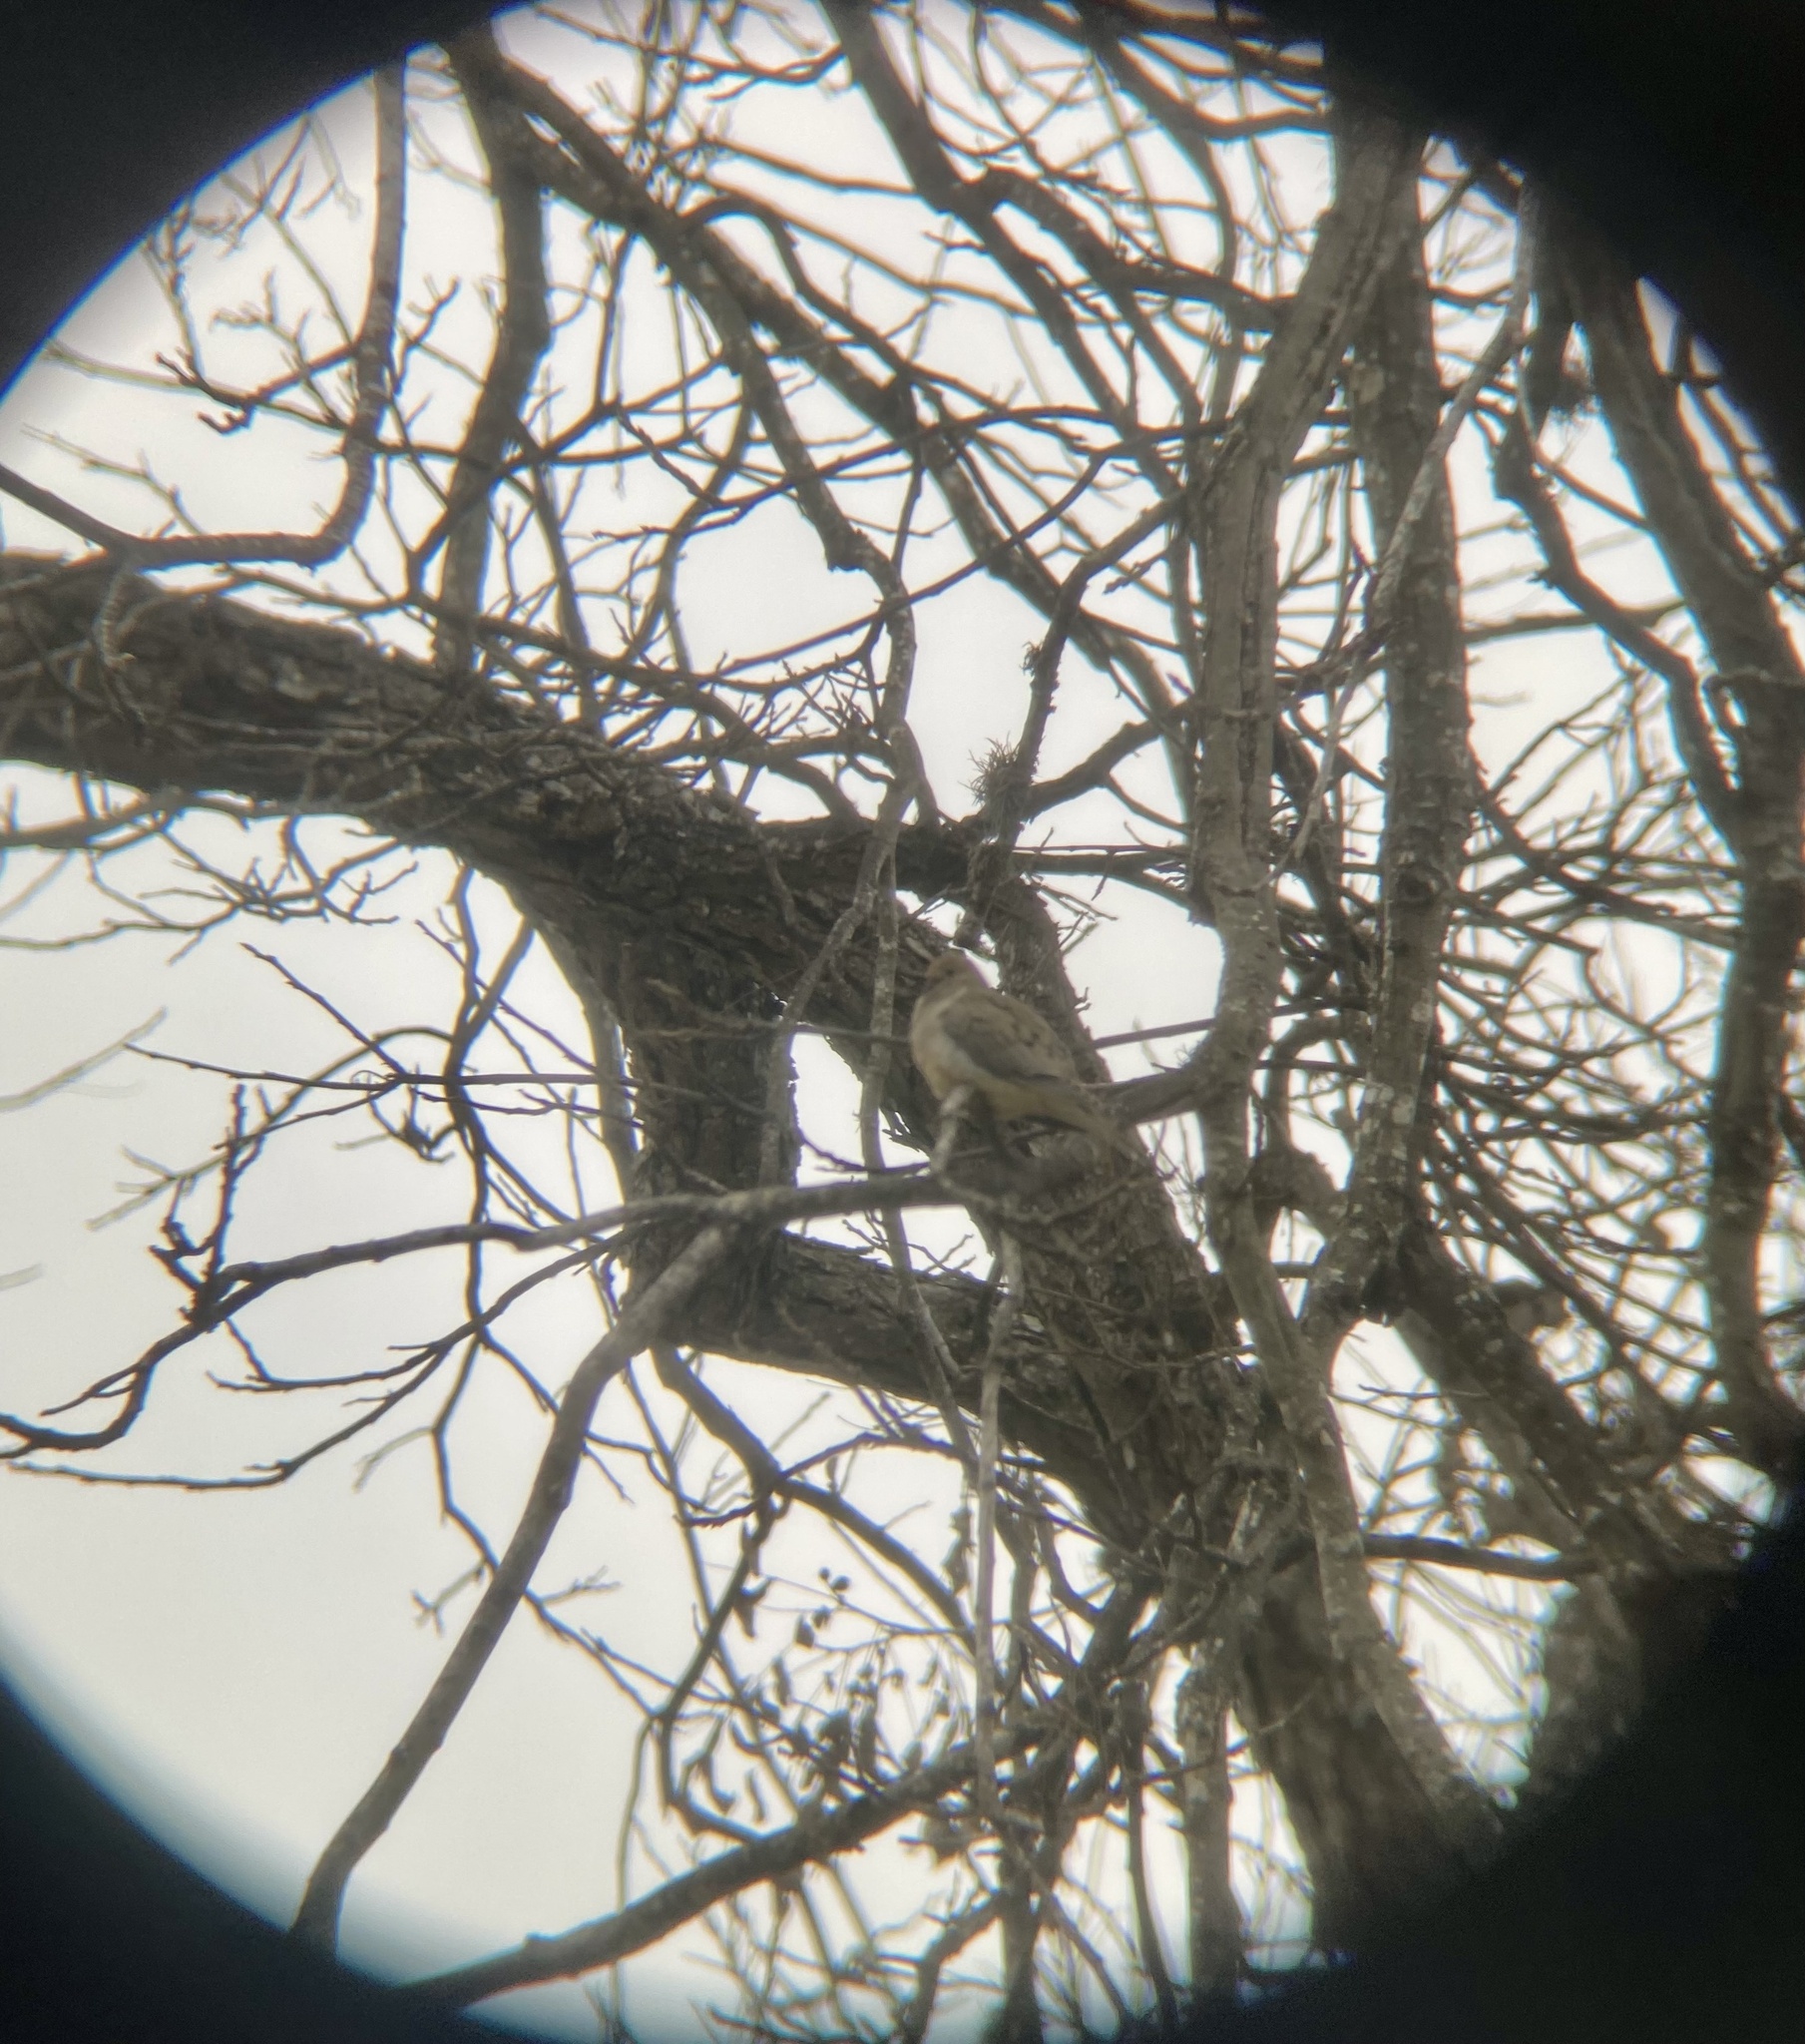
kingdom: Animalia
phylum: Chordata
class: Aves
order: Columbiformes
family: Columbidae
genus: Zenaida
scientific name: Zenaida macroura
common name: Mourning dove
